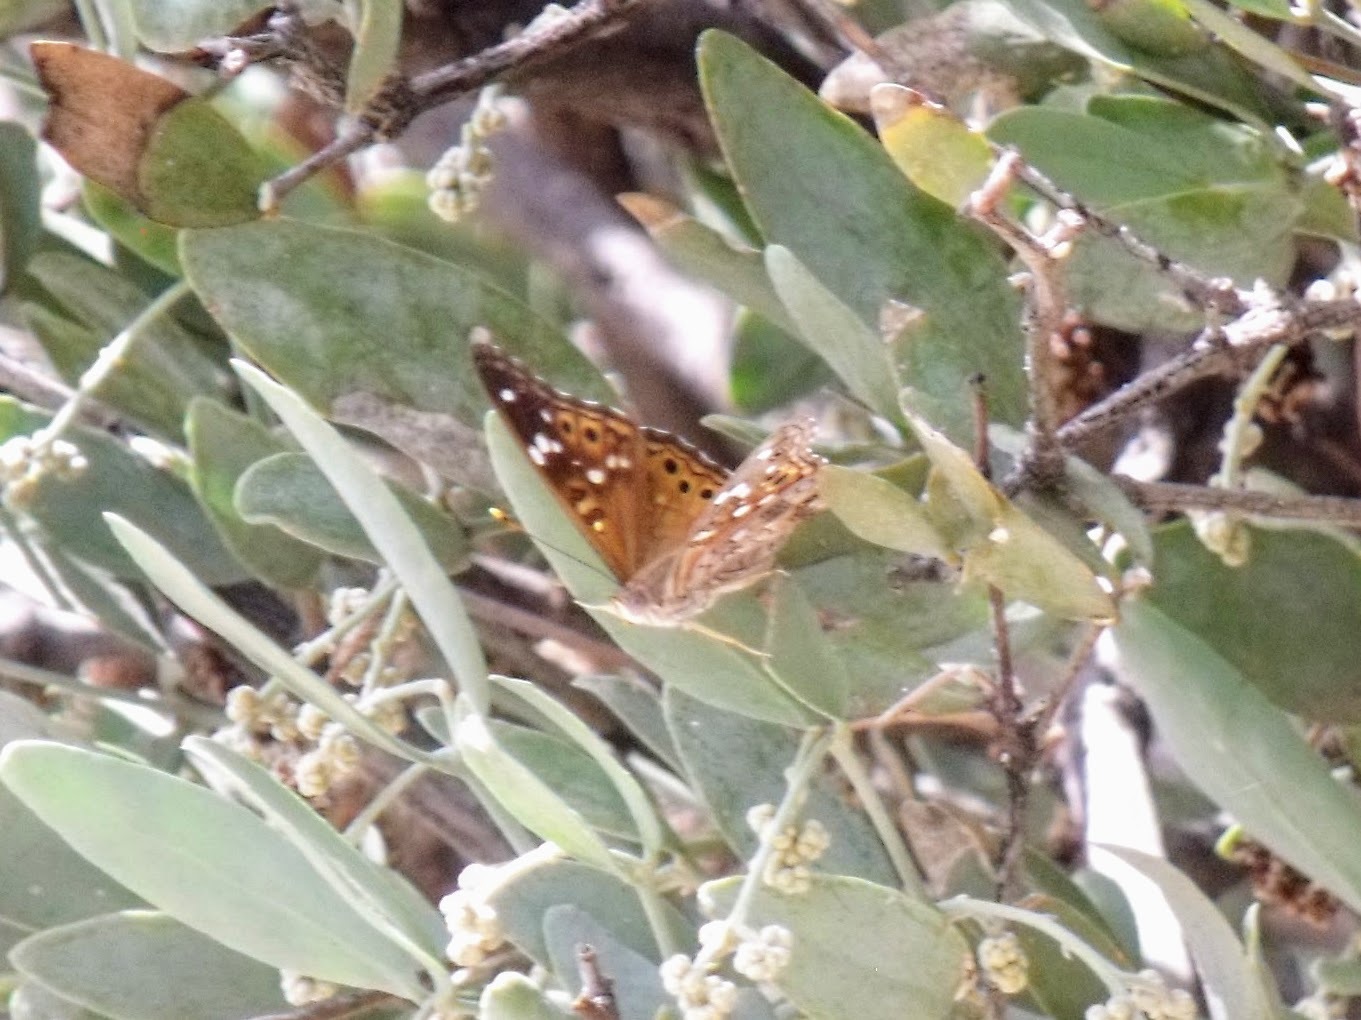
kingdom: Animalia
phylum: Arthropoda
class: Insecta
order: Lepidoptera
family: Nymphalidae
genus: Asterocampa
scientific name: Asterocampa leilia
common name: Empress leilia
